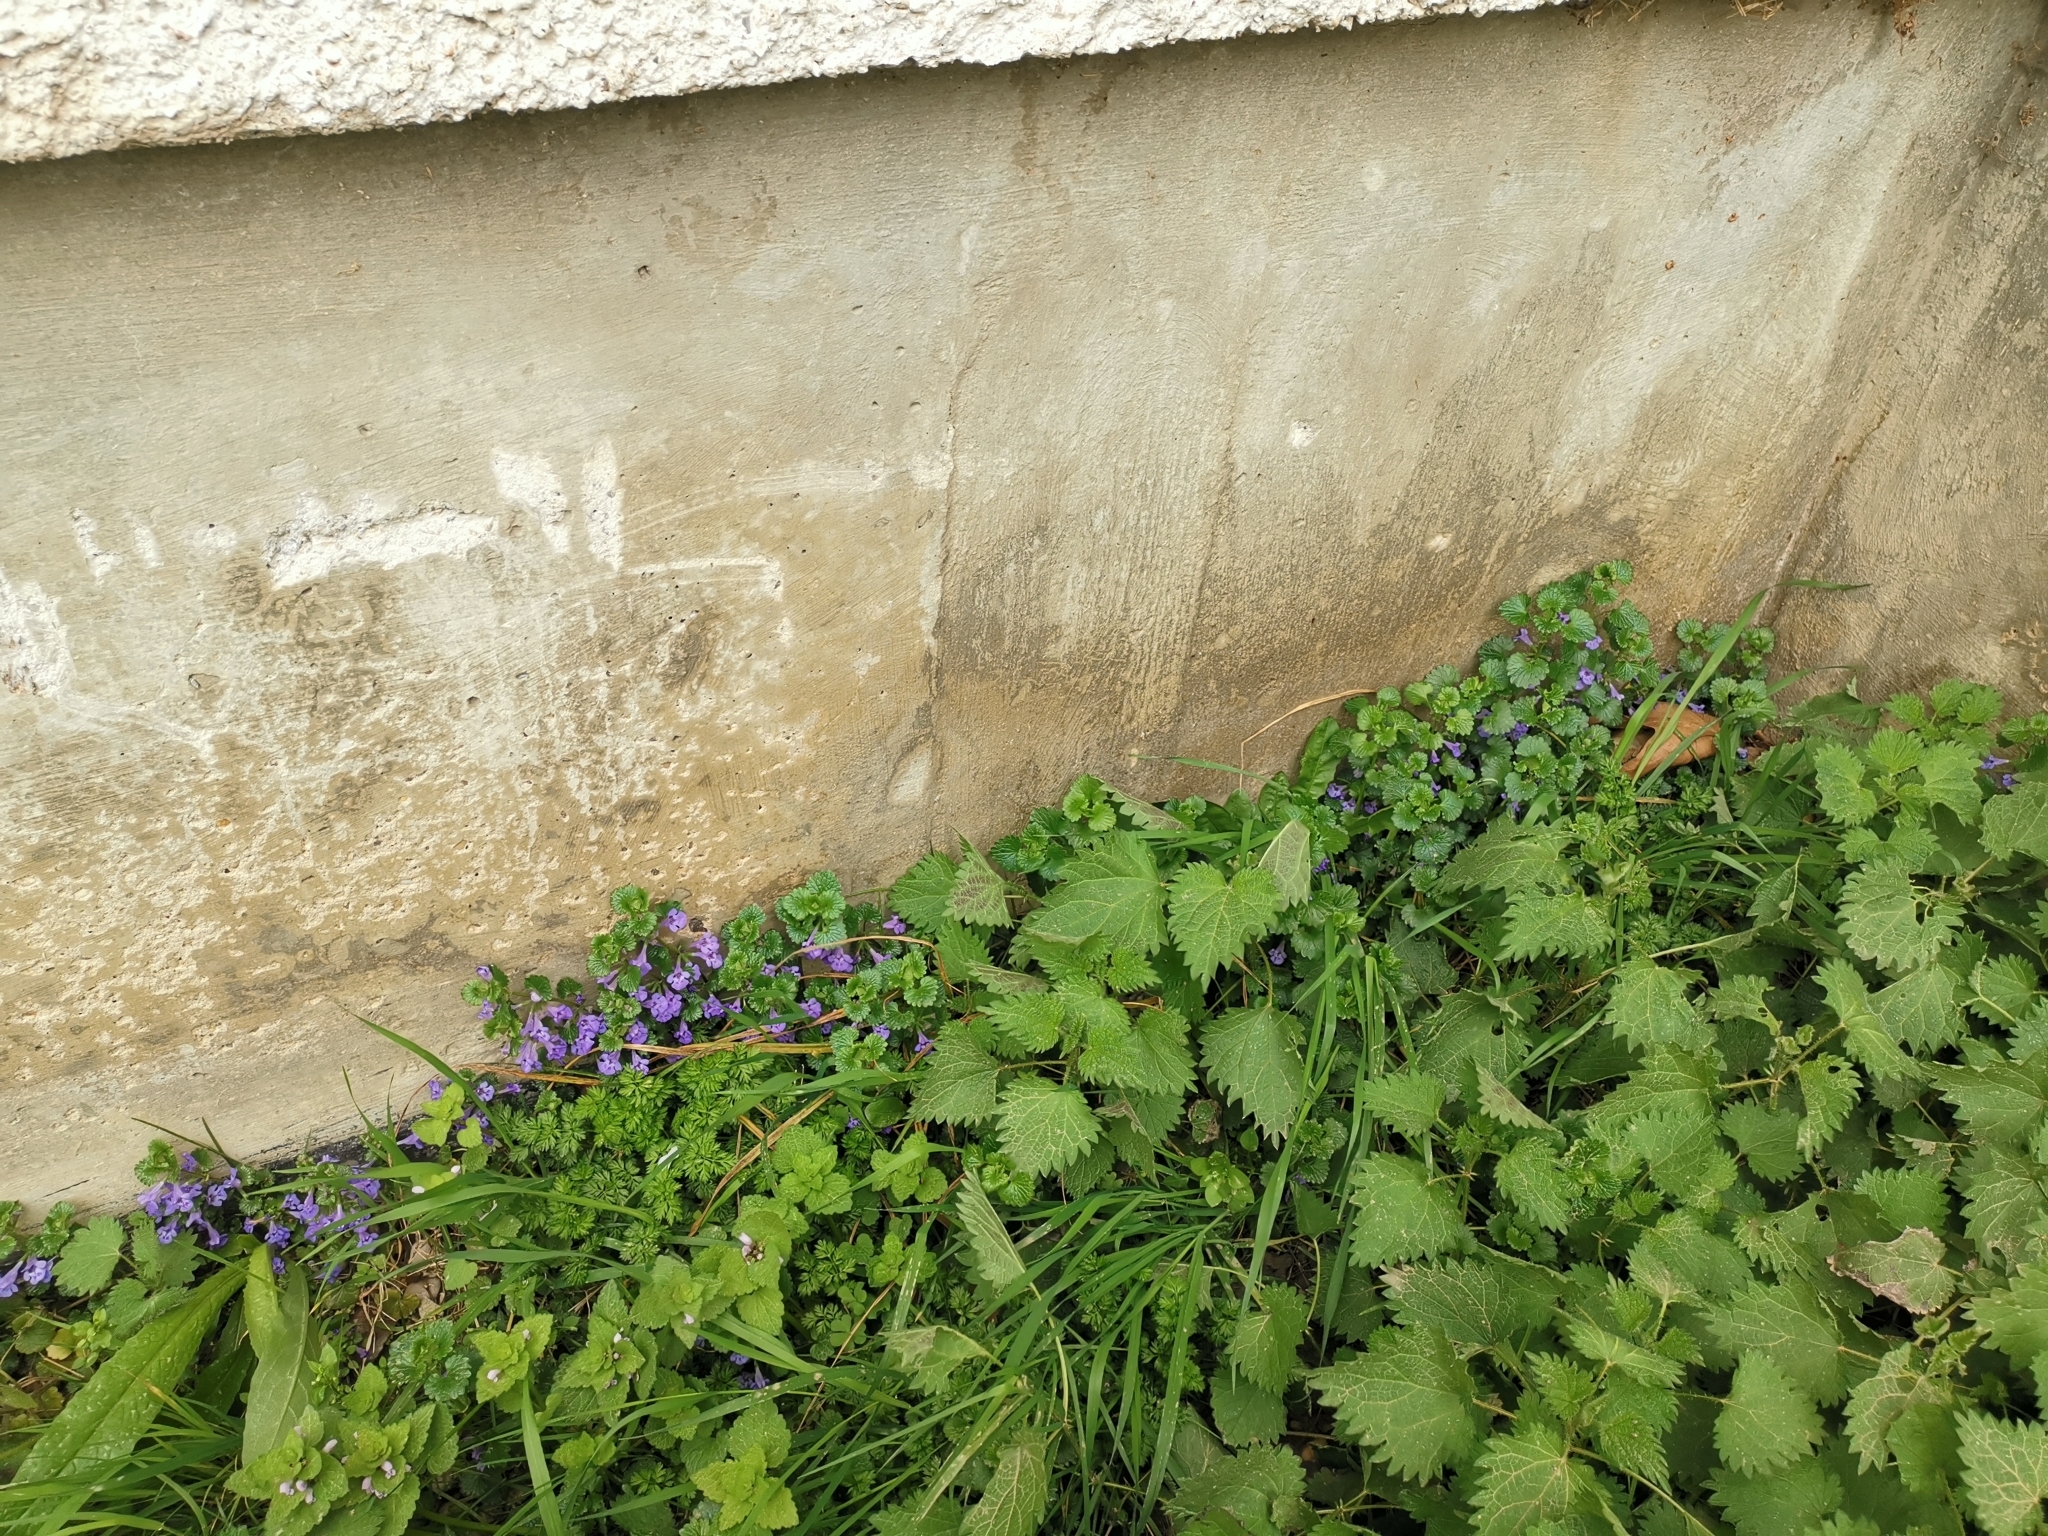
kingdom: Plantae
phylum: Tracheophyta
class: Magnoliopsida
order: Lamiales
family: Lamiaceae
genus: Glechoma
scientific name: Glechoma hederacea
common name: Ground ivy
